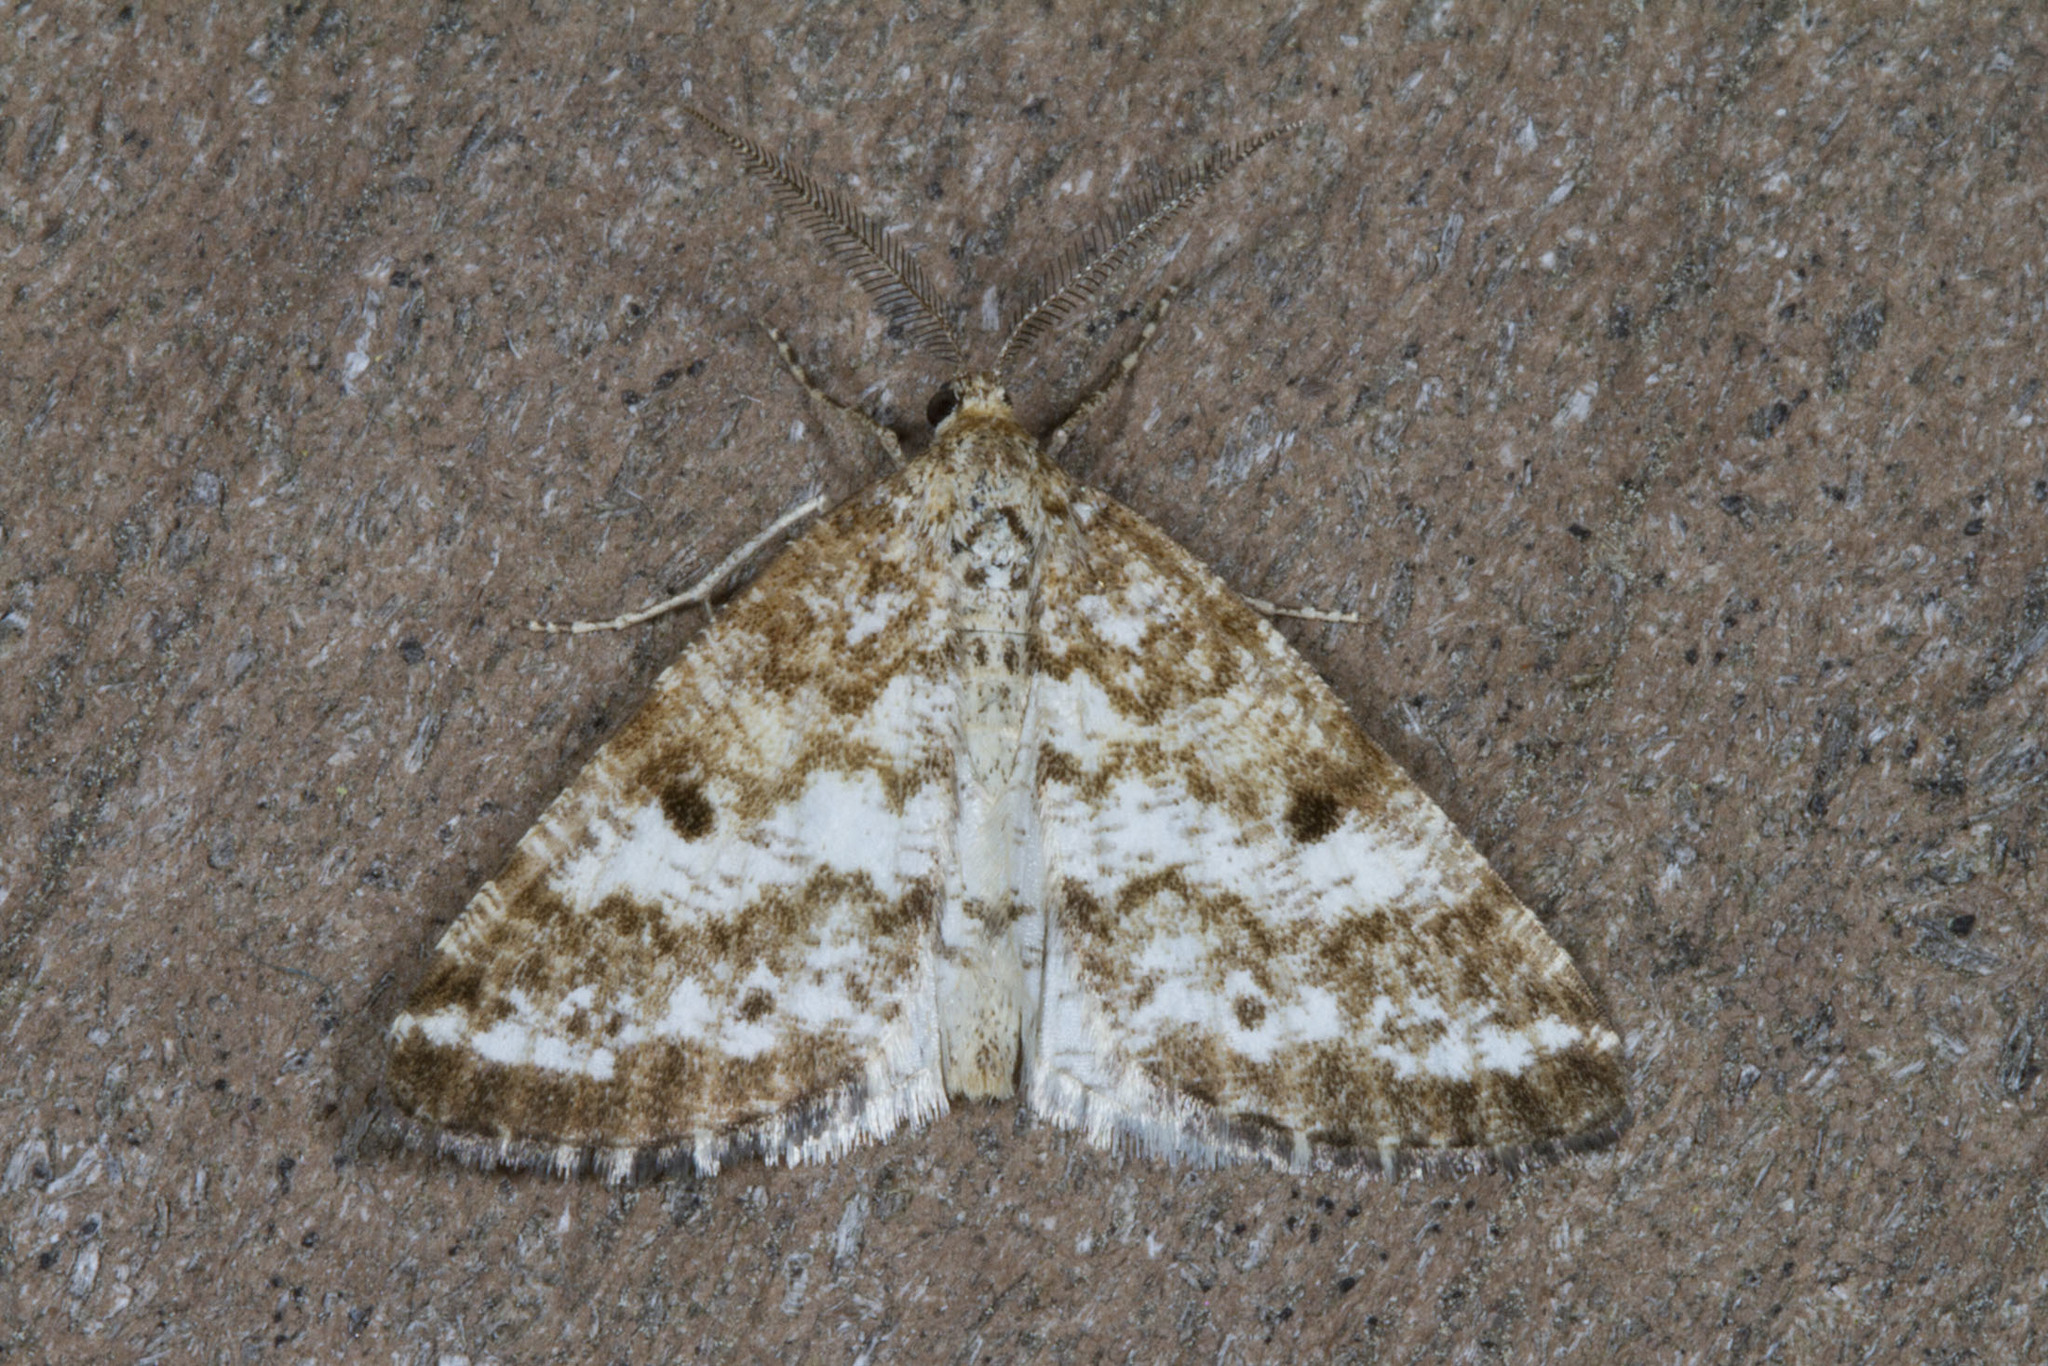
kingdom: Animalia
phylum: Arthropoda
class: Insecta
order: Lepidoptera
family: Geometridae
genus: Eufidonia
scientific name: Eufidonia notataria
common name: Powder moth
